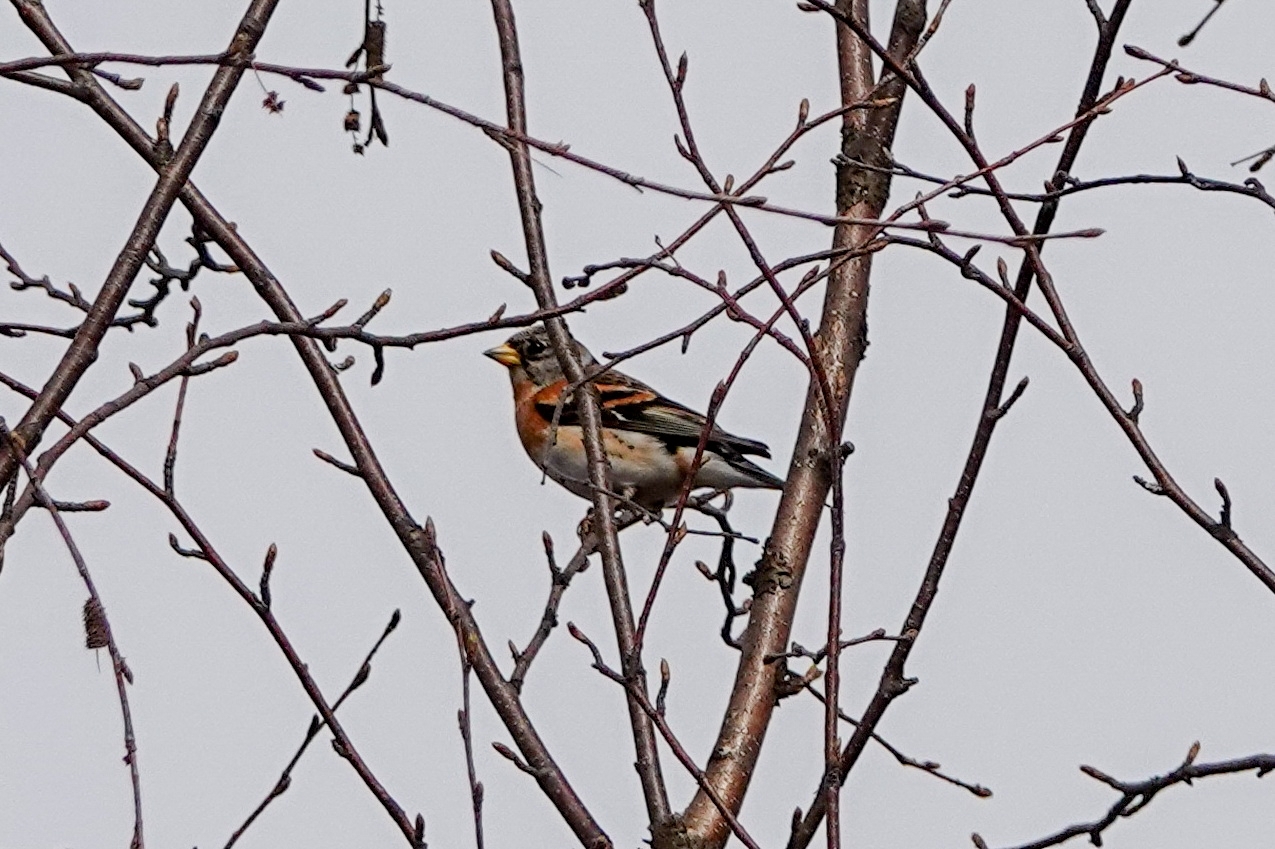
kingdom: Animalia
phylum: Chordata
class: Aves
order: Passeriformes
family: Fringillidae
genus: Fringilla
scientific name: Fringilla montifringilla
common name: Brambling
